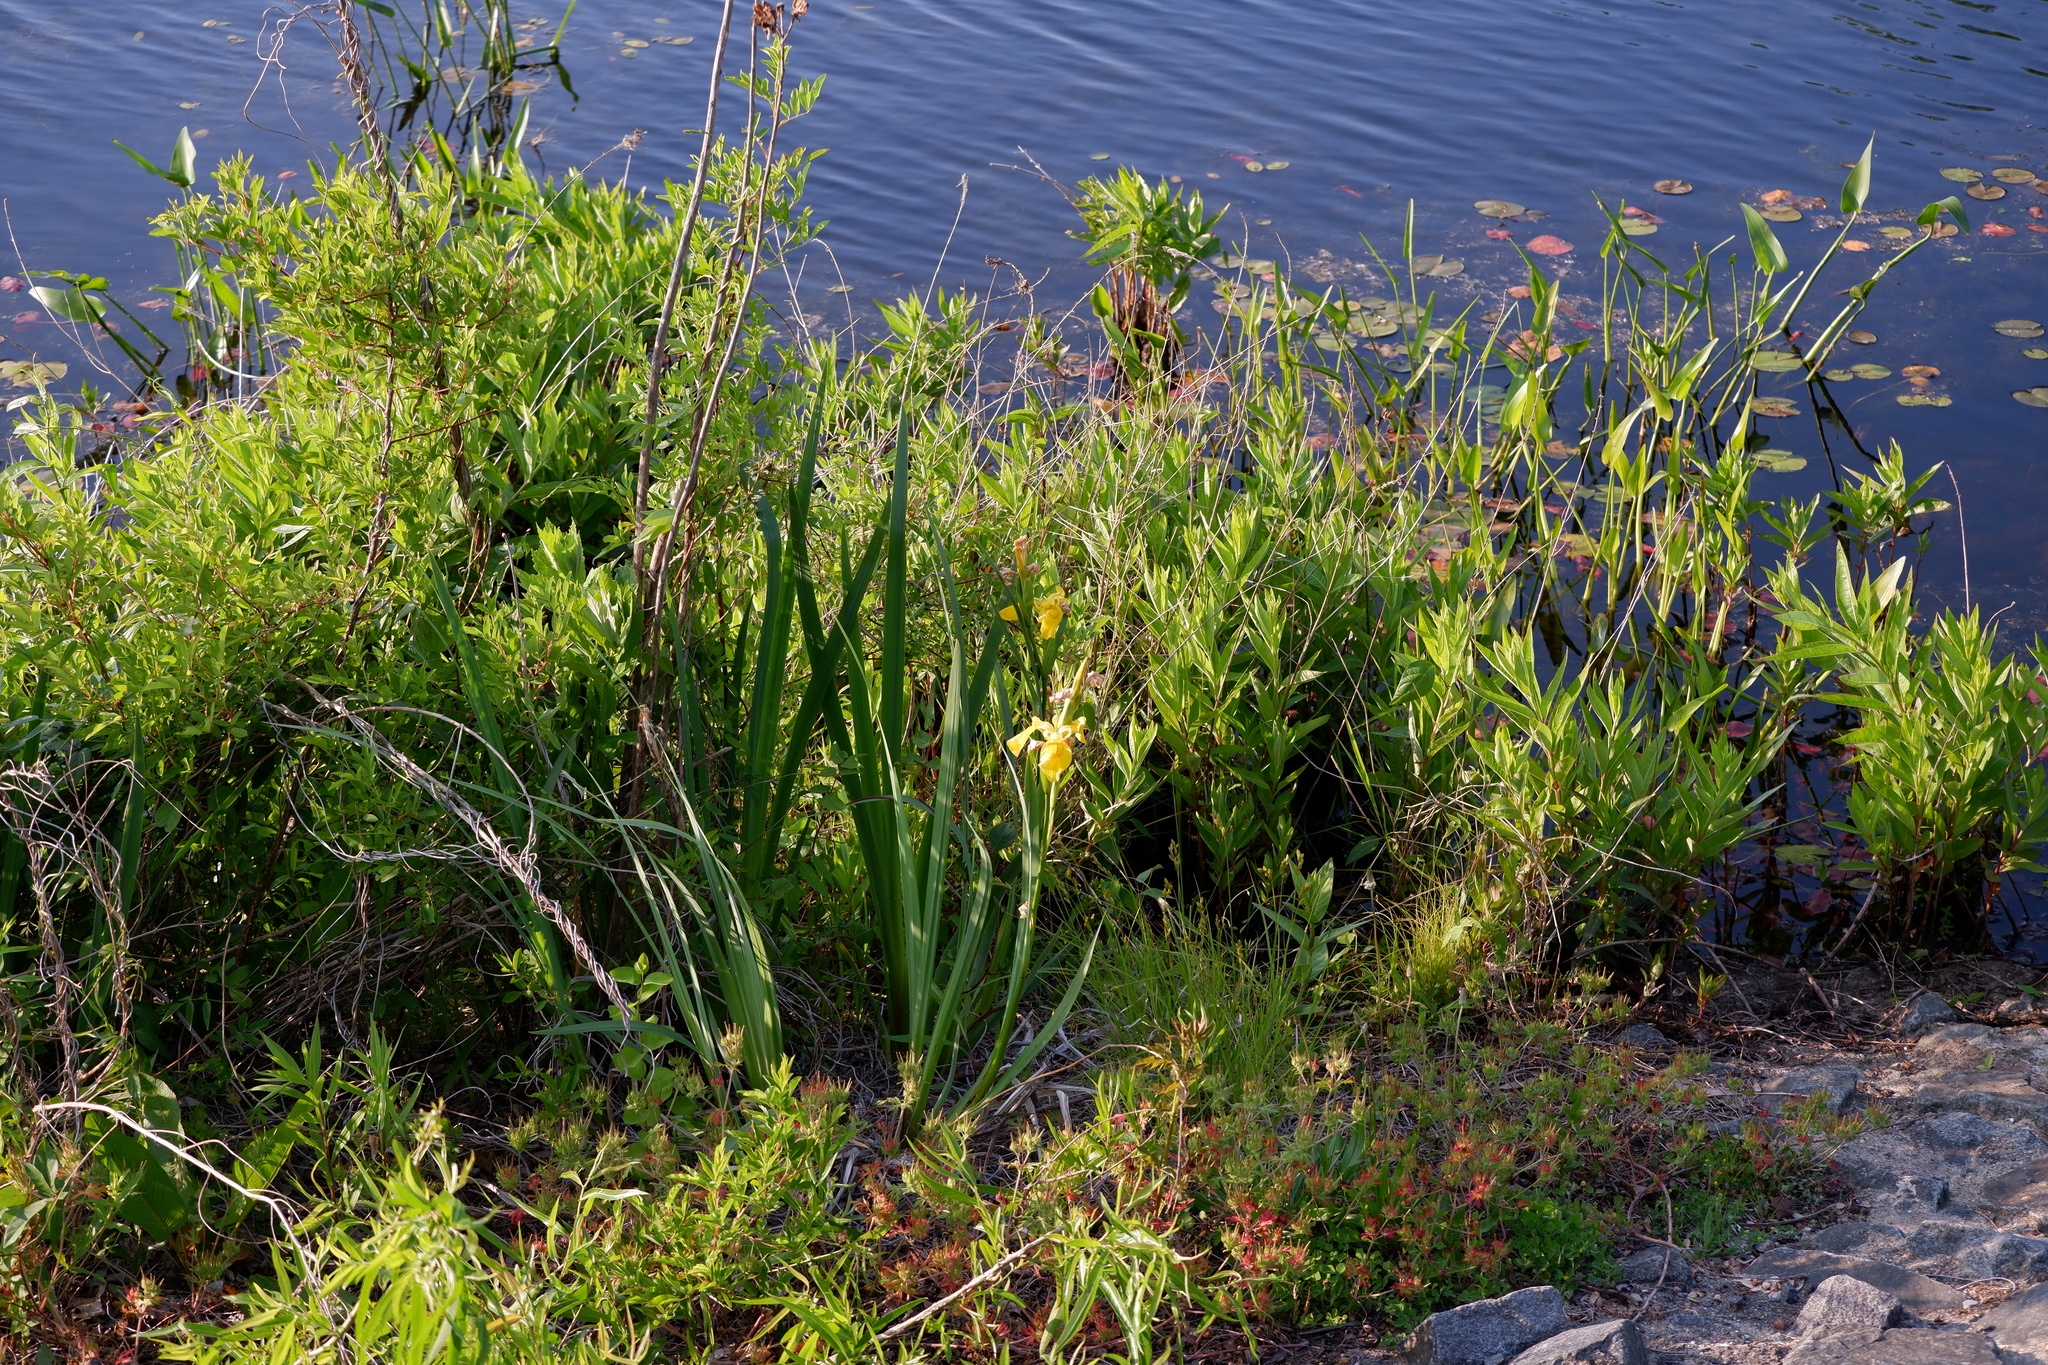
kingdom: Plantae
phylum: Tracheophyta
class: Liliopsida
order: Asparagales
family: Iridaceae
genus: Iris
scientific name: Iris pseudacorus
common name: Yellow flag
